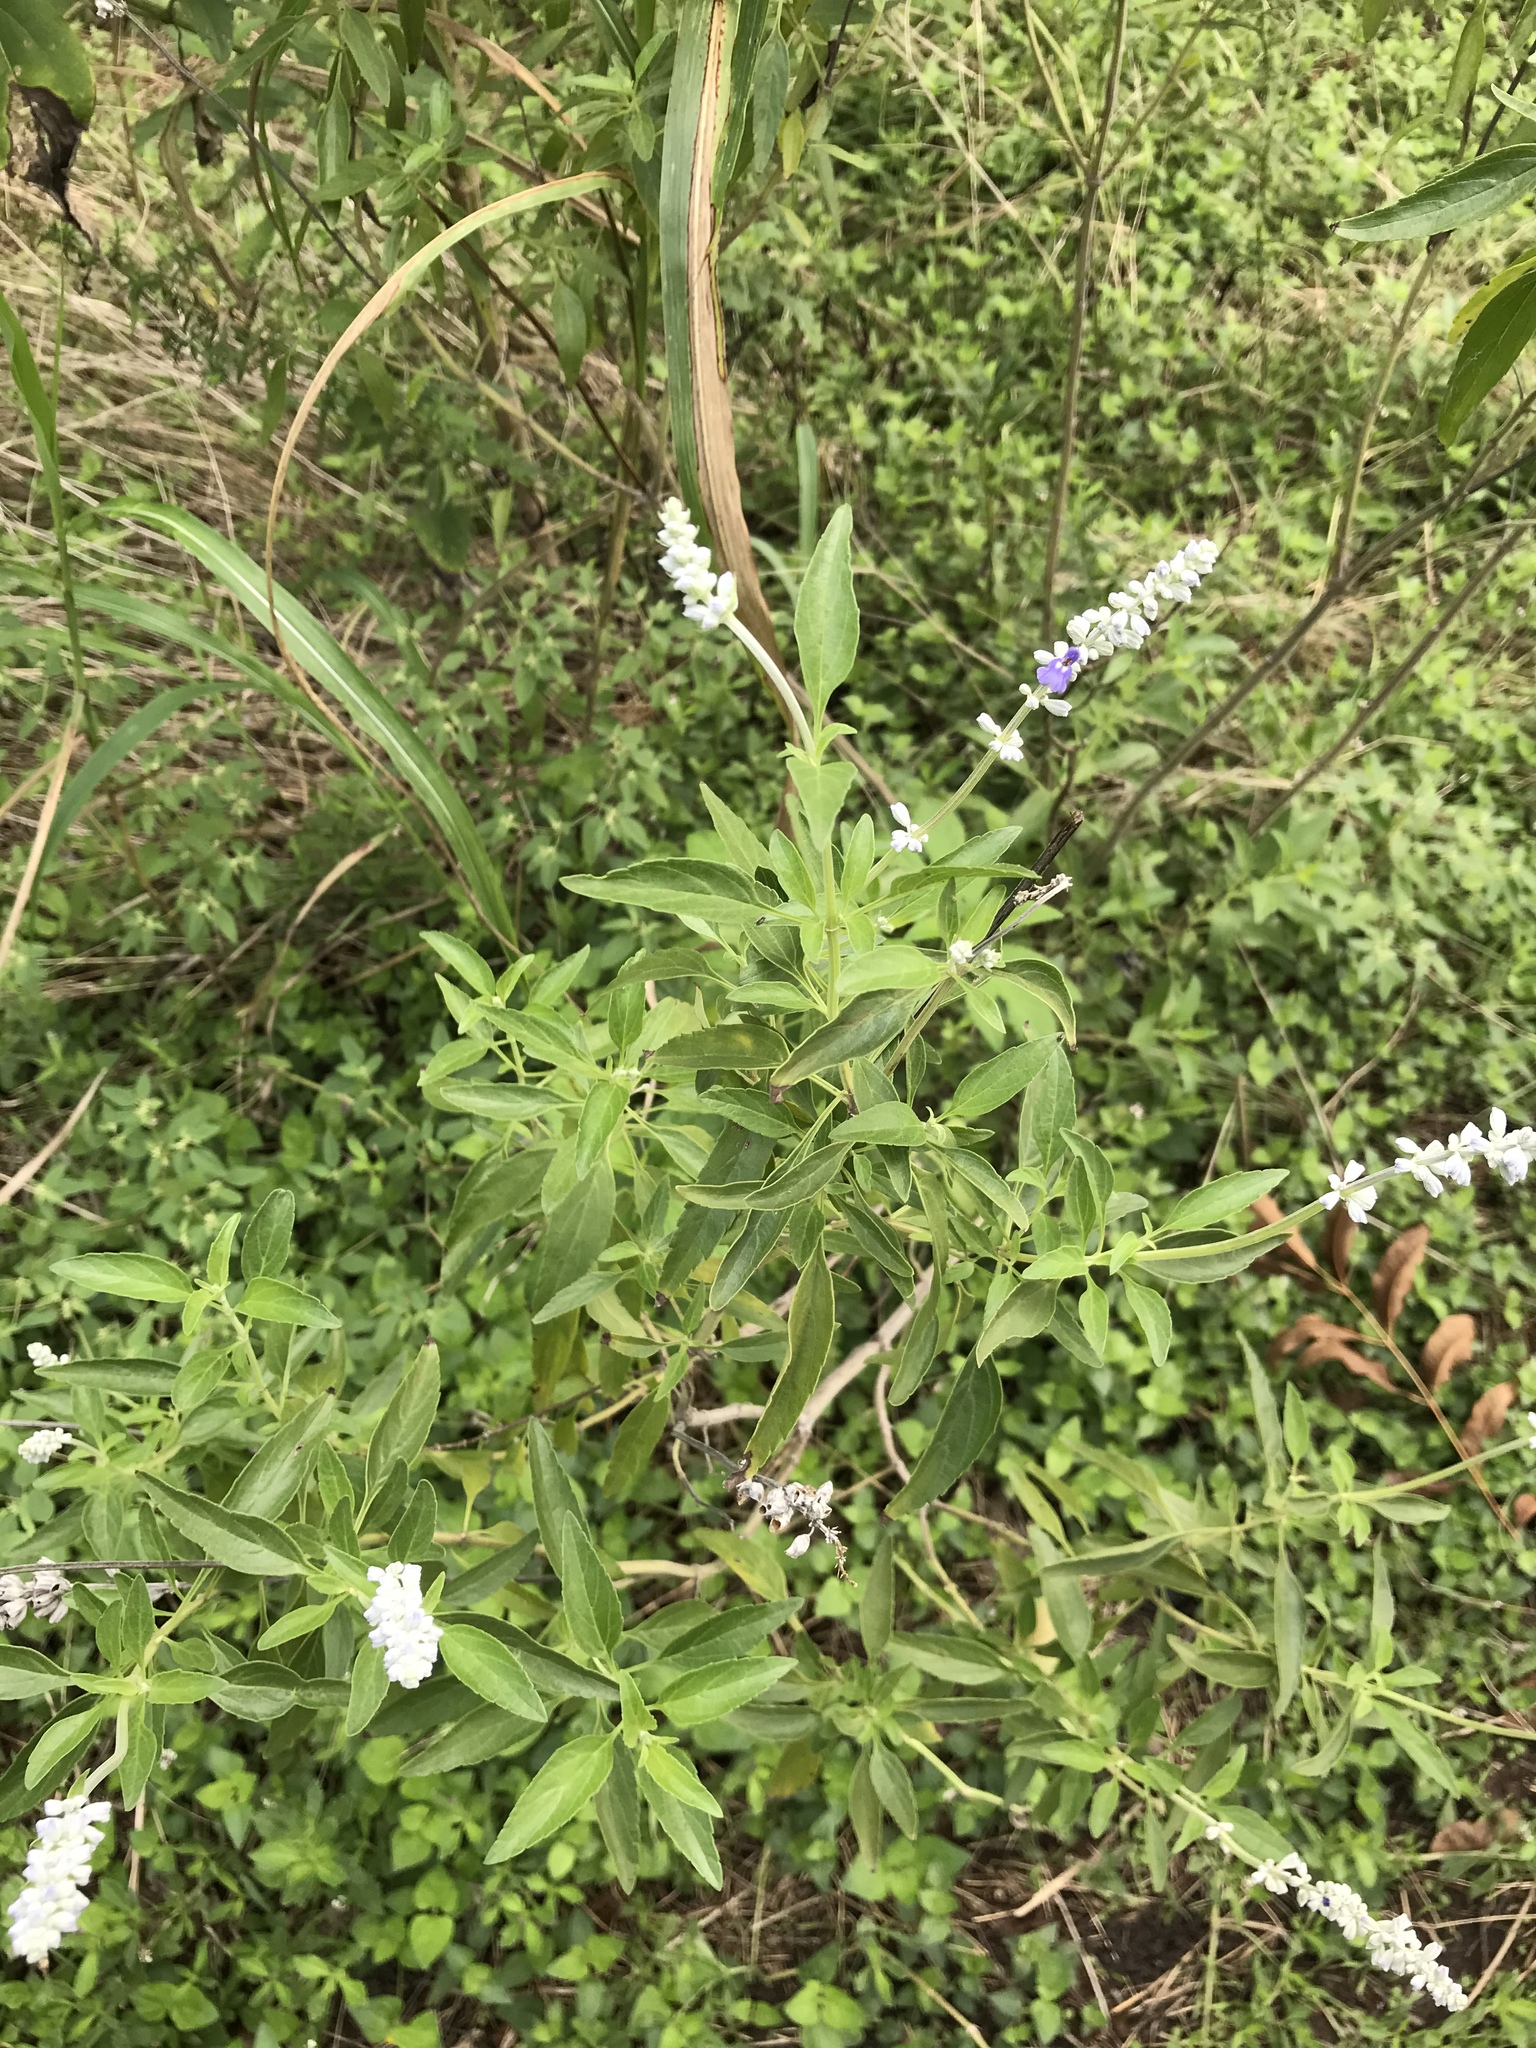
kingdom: Plantae
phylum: Tracheophyta
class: Magnoliopsida
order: Lamiales
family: Lamiaceae
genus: Salvia
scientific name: Salvia farinacea
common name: Mealy sage
